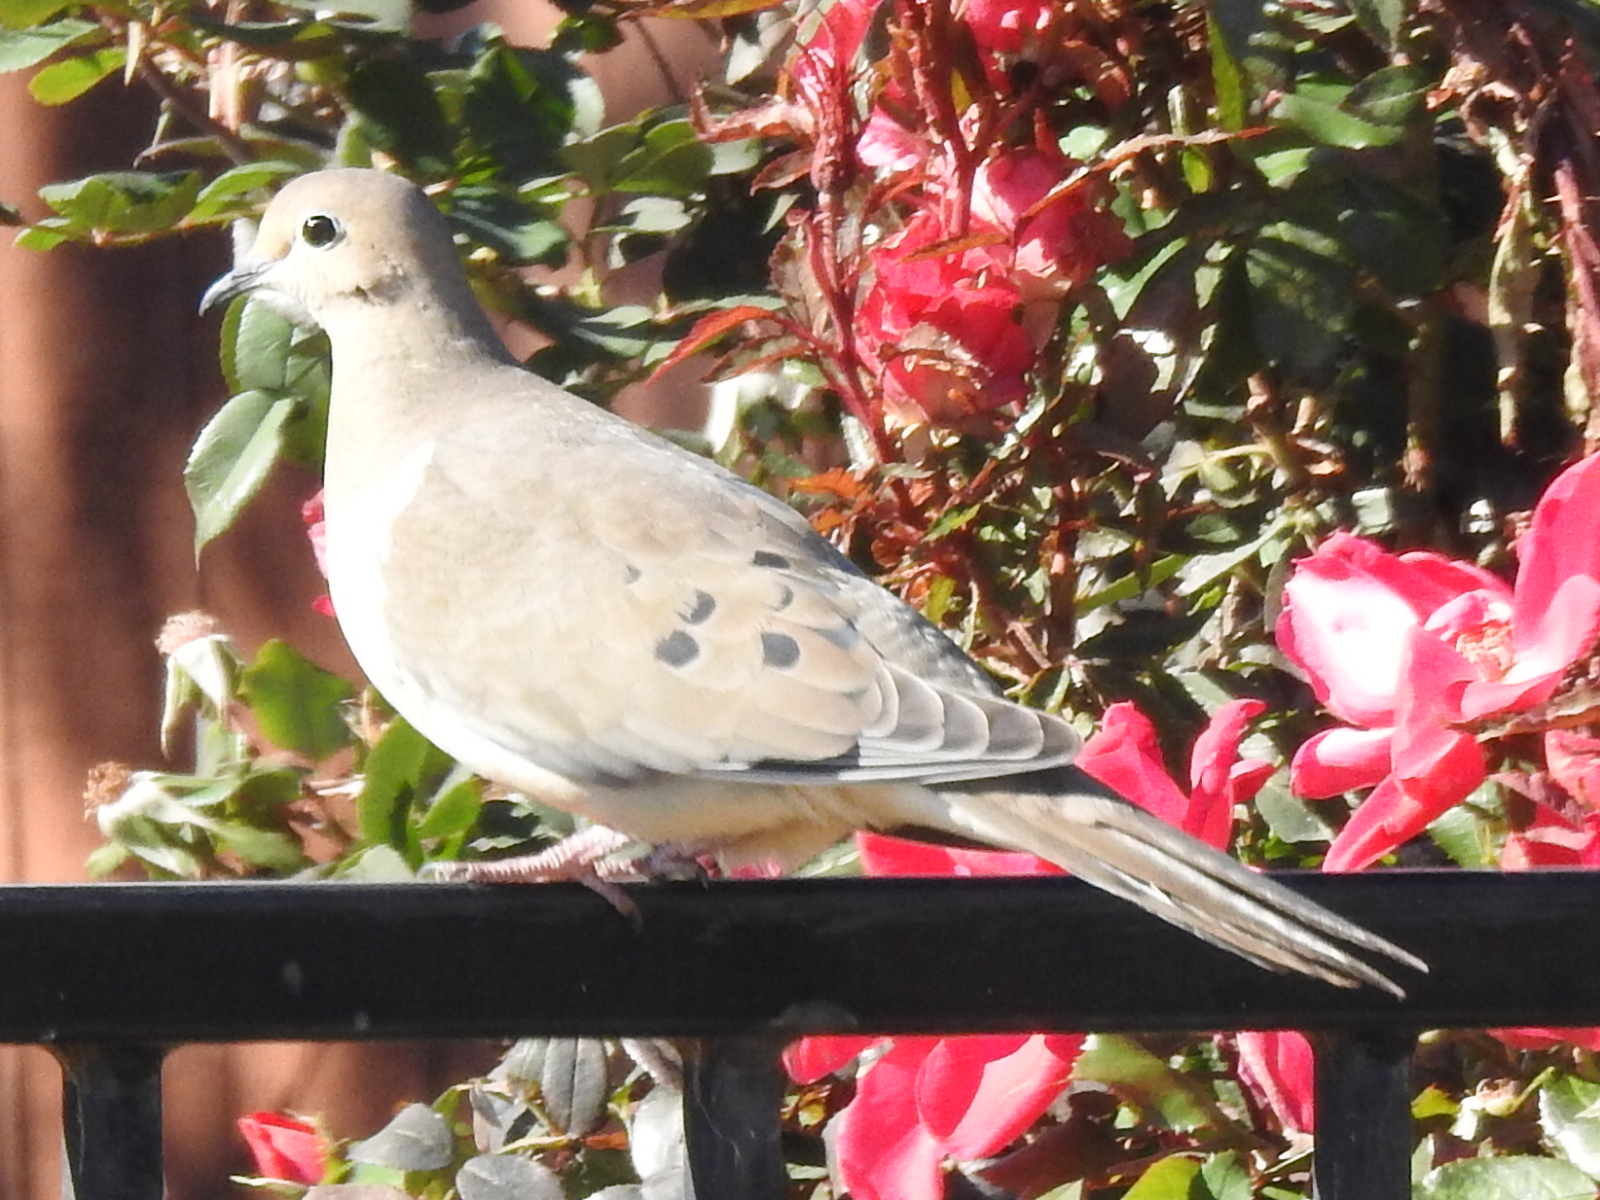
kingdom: Animalia
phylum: Chordata
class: Aves
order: Columbiformes
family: Columbidae
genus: Zenaida
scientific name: Zenaida macroura
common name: Mourning dove
